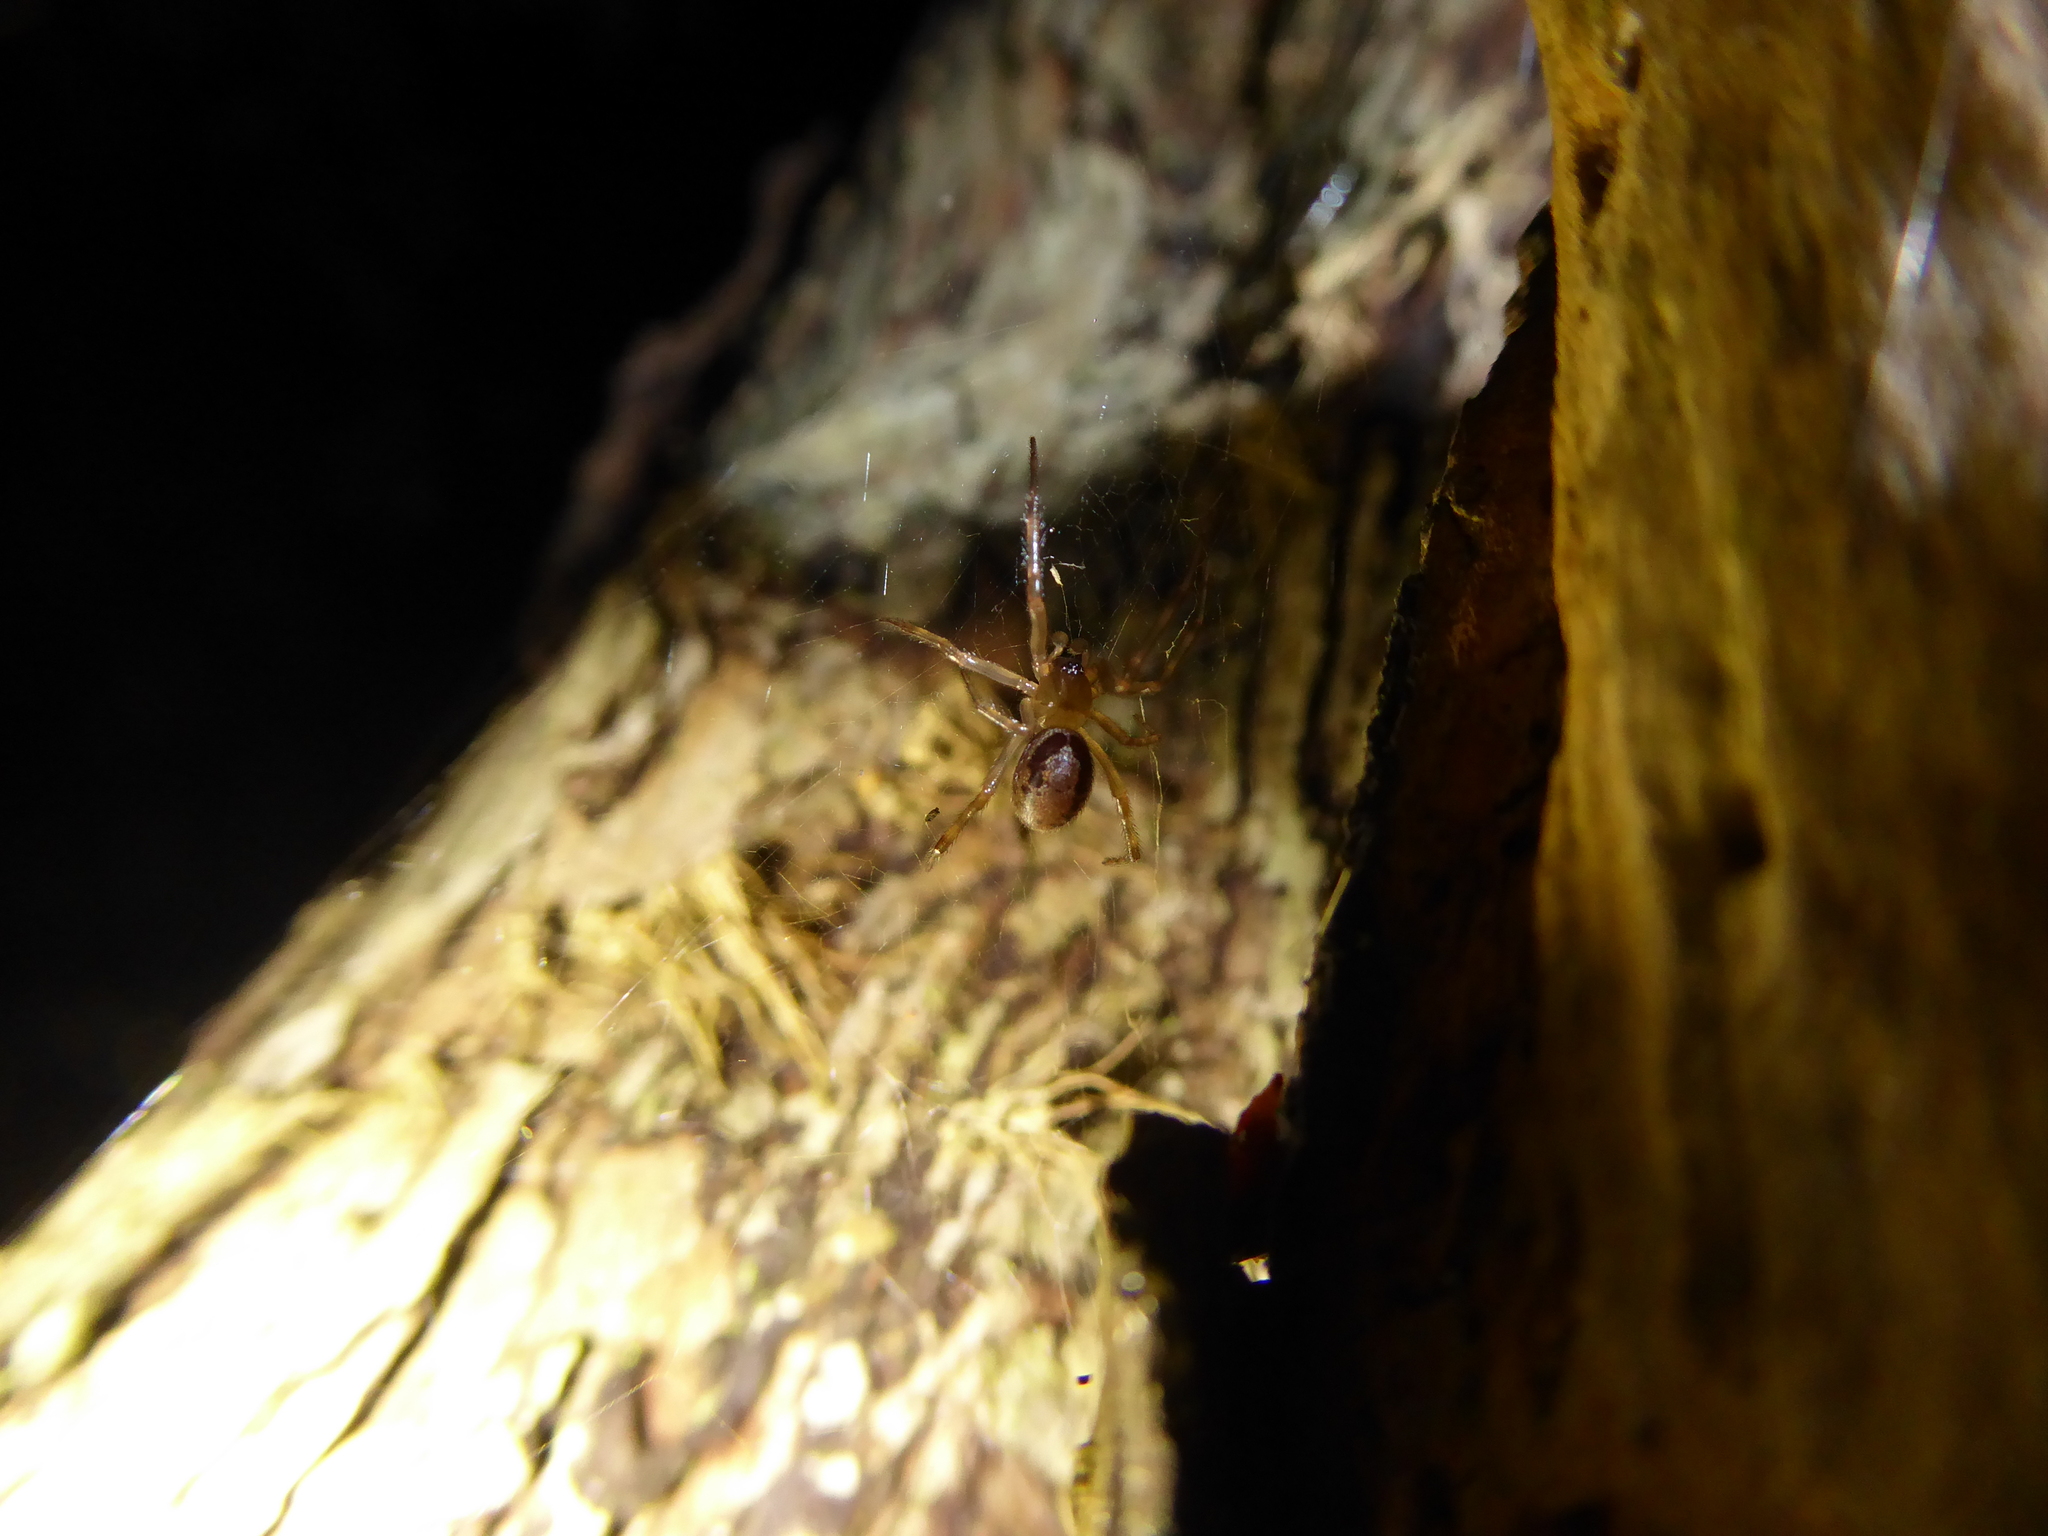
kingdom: Animalia
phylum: Arthropoda
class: Arachnida
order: Araneae
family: Theridiidae
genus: Steatoda
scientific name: Steatoda nobilis
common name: Cobweb weaver
